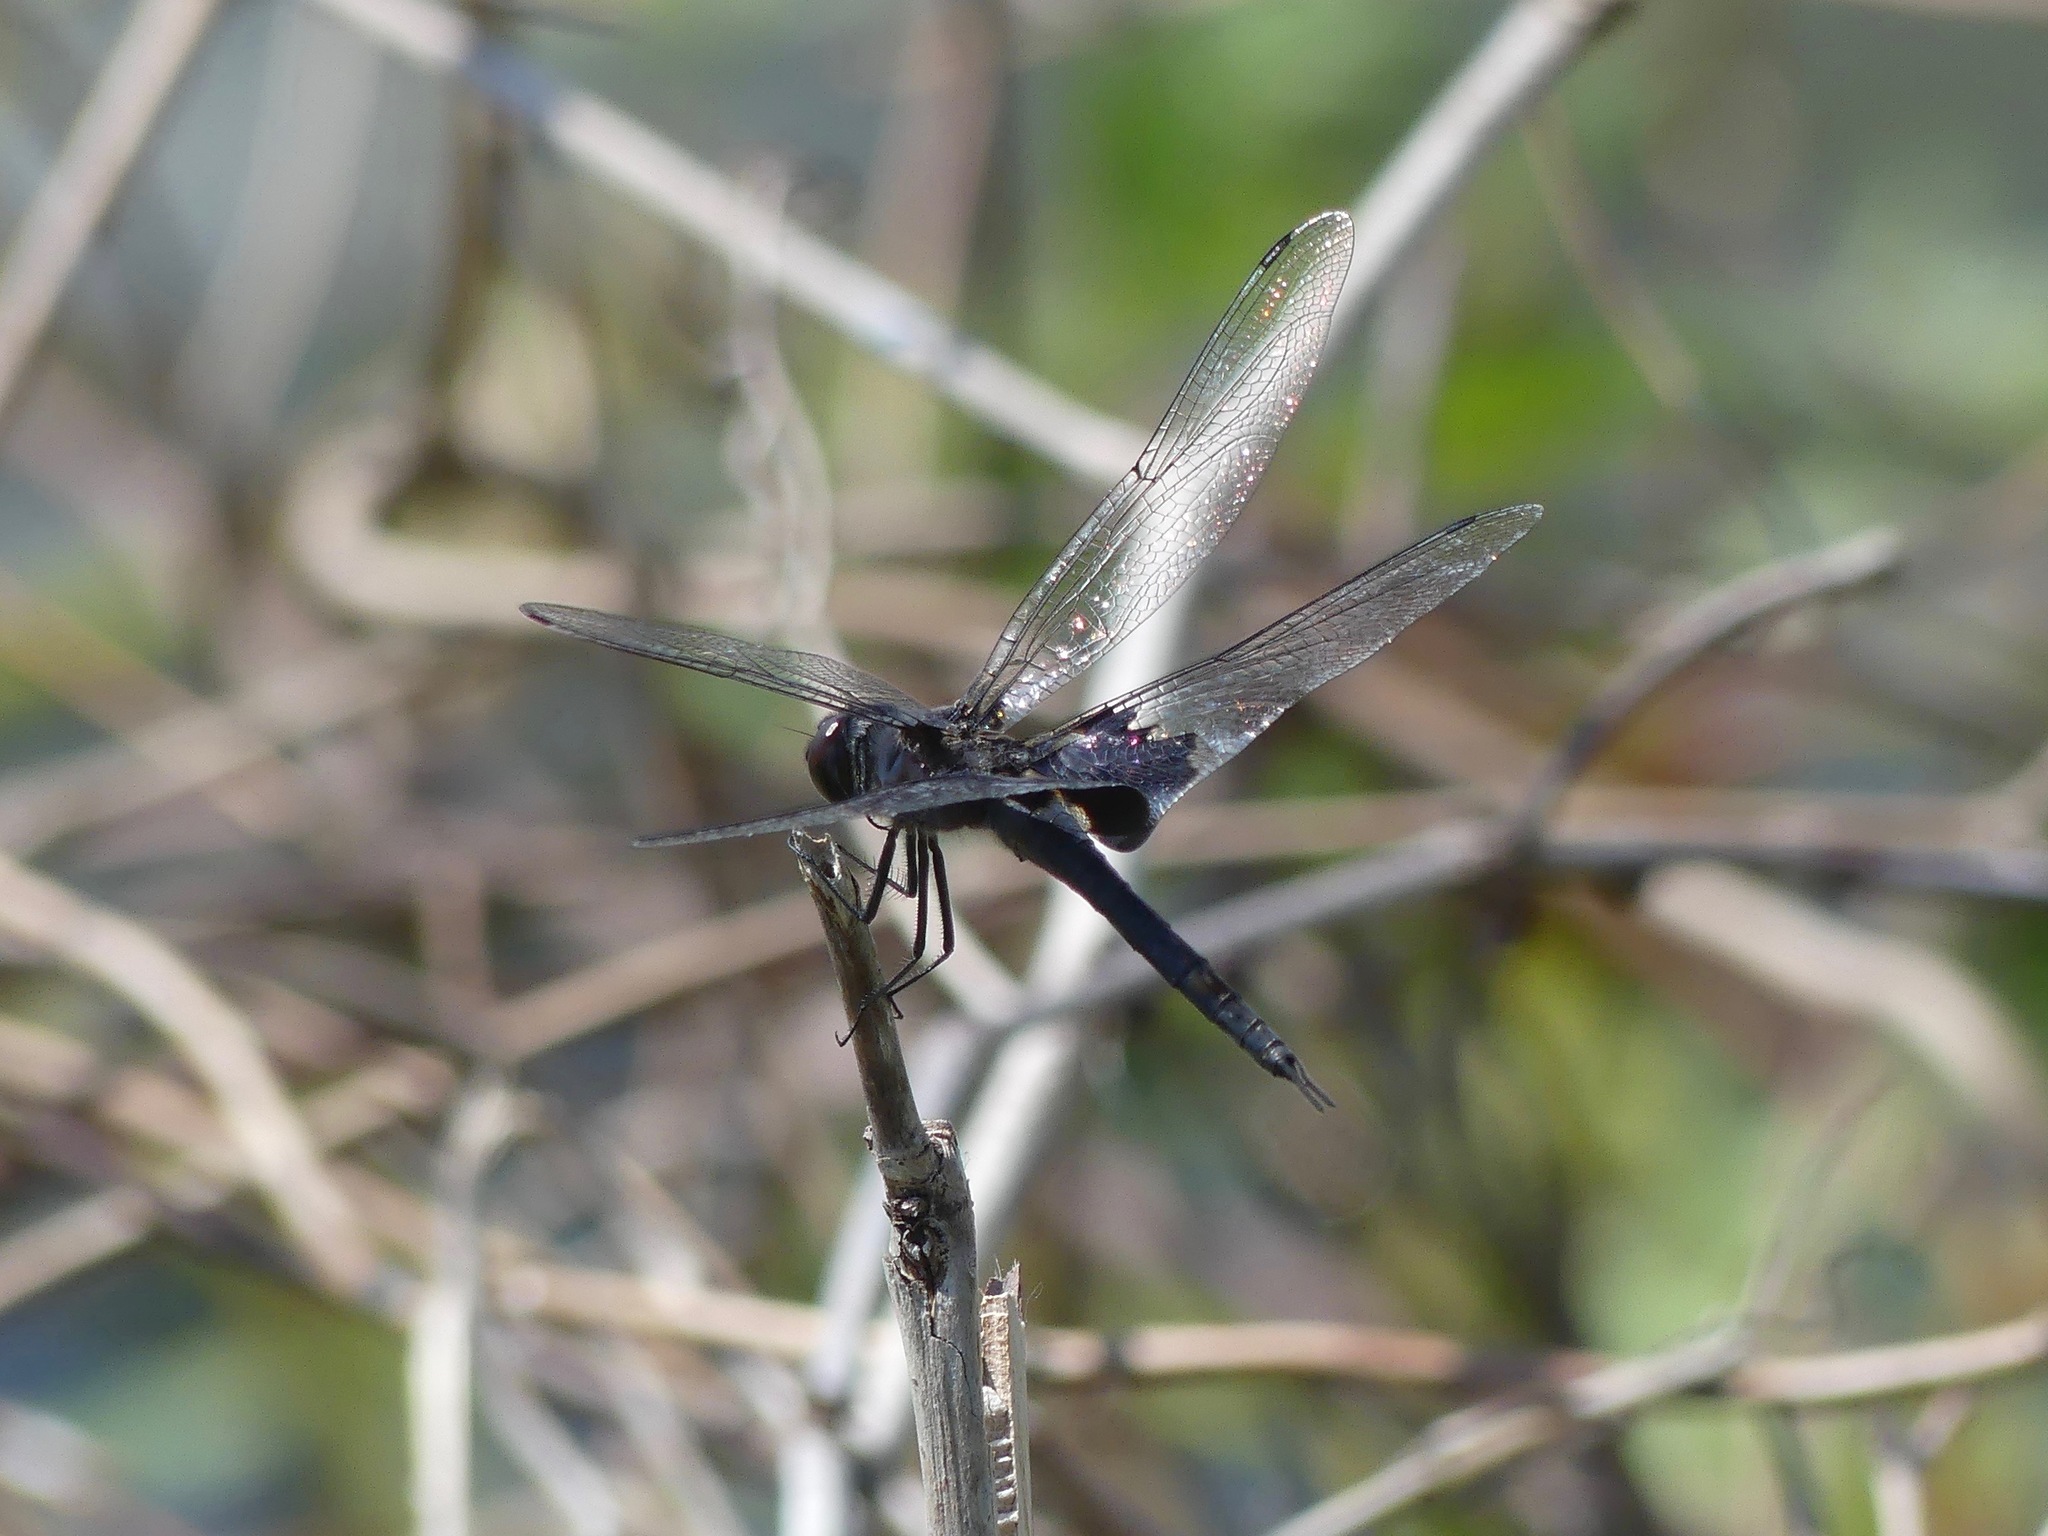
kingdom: Animalia
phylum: Arthropoda
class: Insecta
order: Odonata
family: Libellulidae
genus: Tramea
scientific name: Tramea lacerata
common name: Black saddlebags
